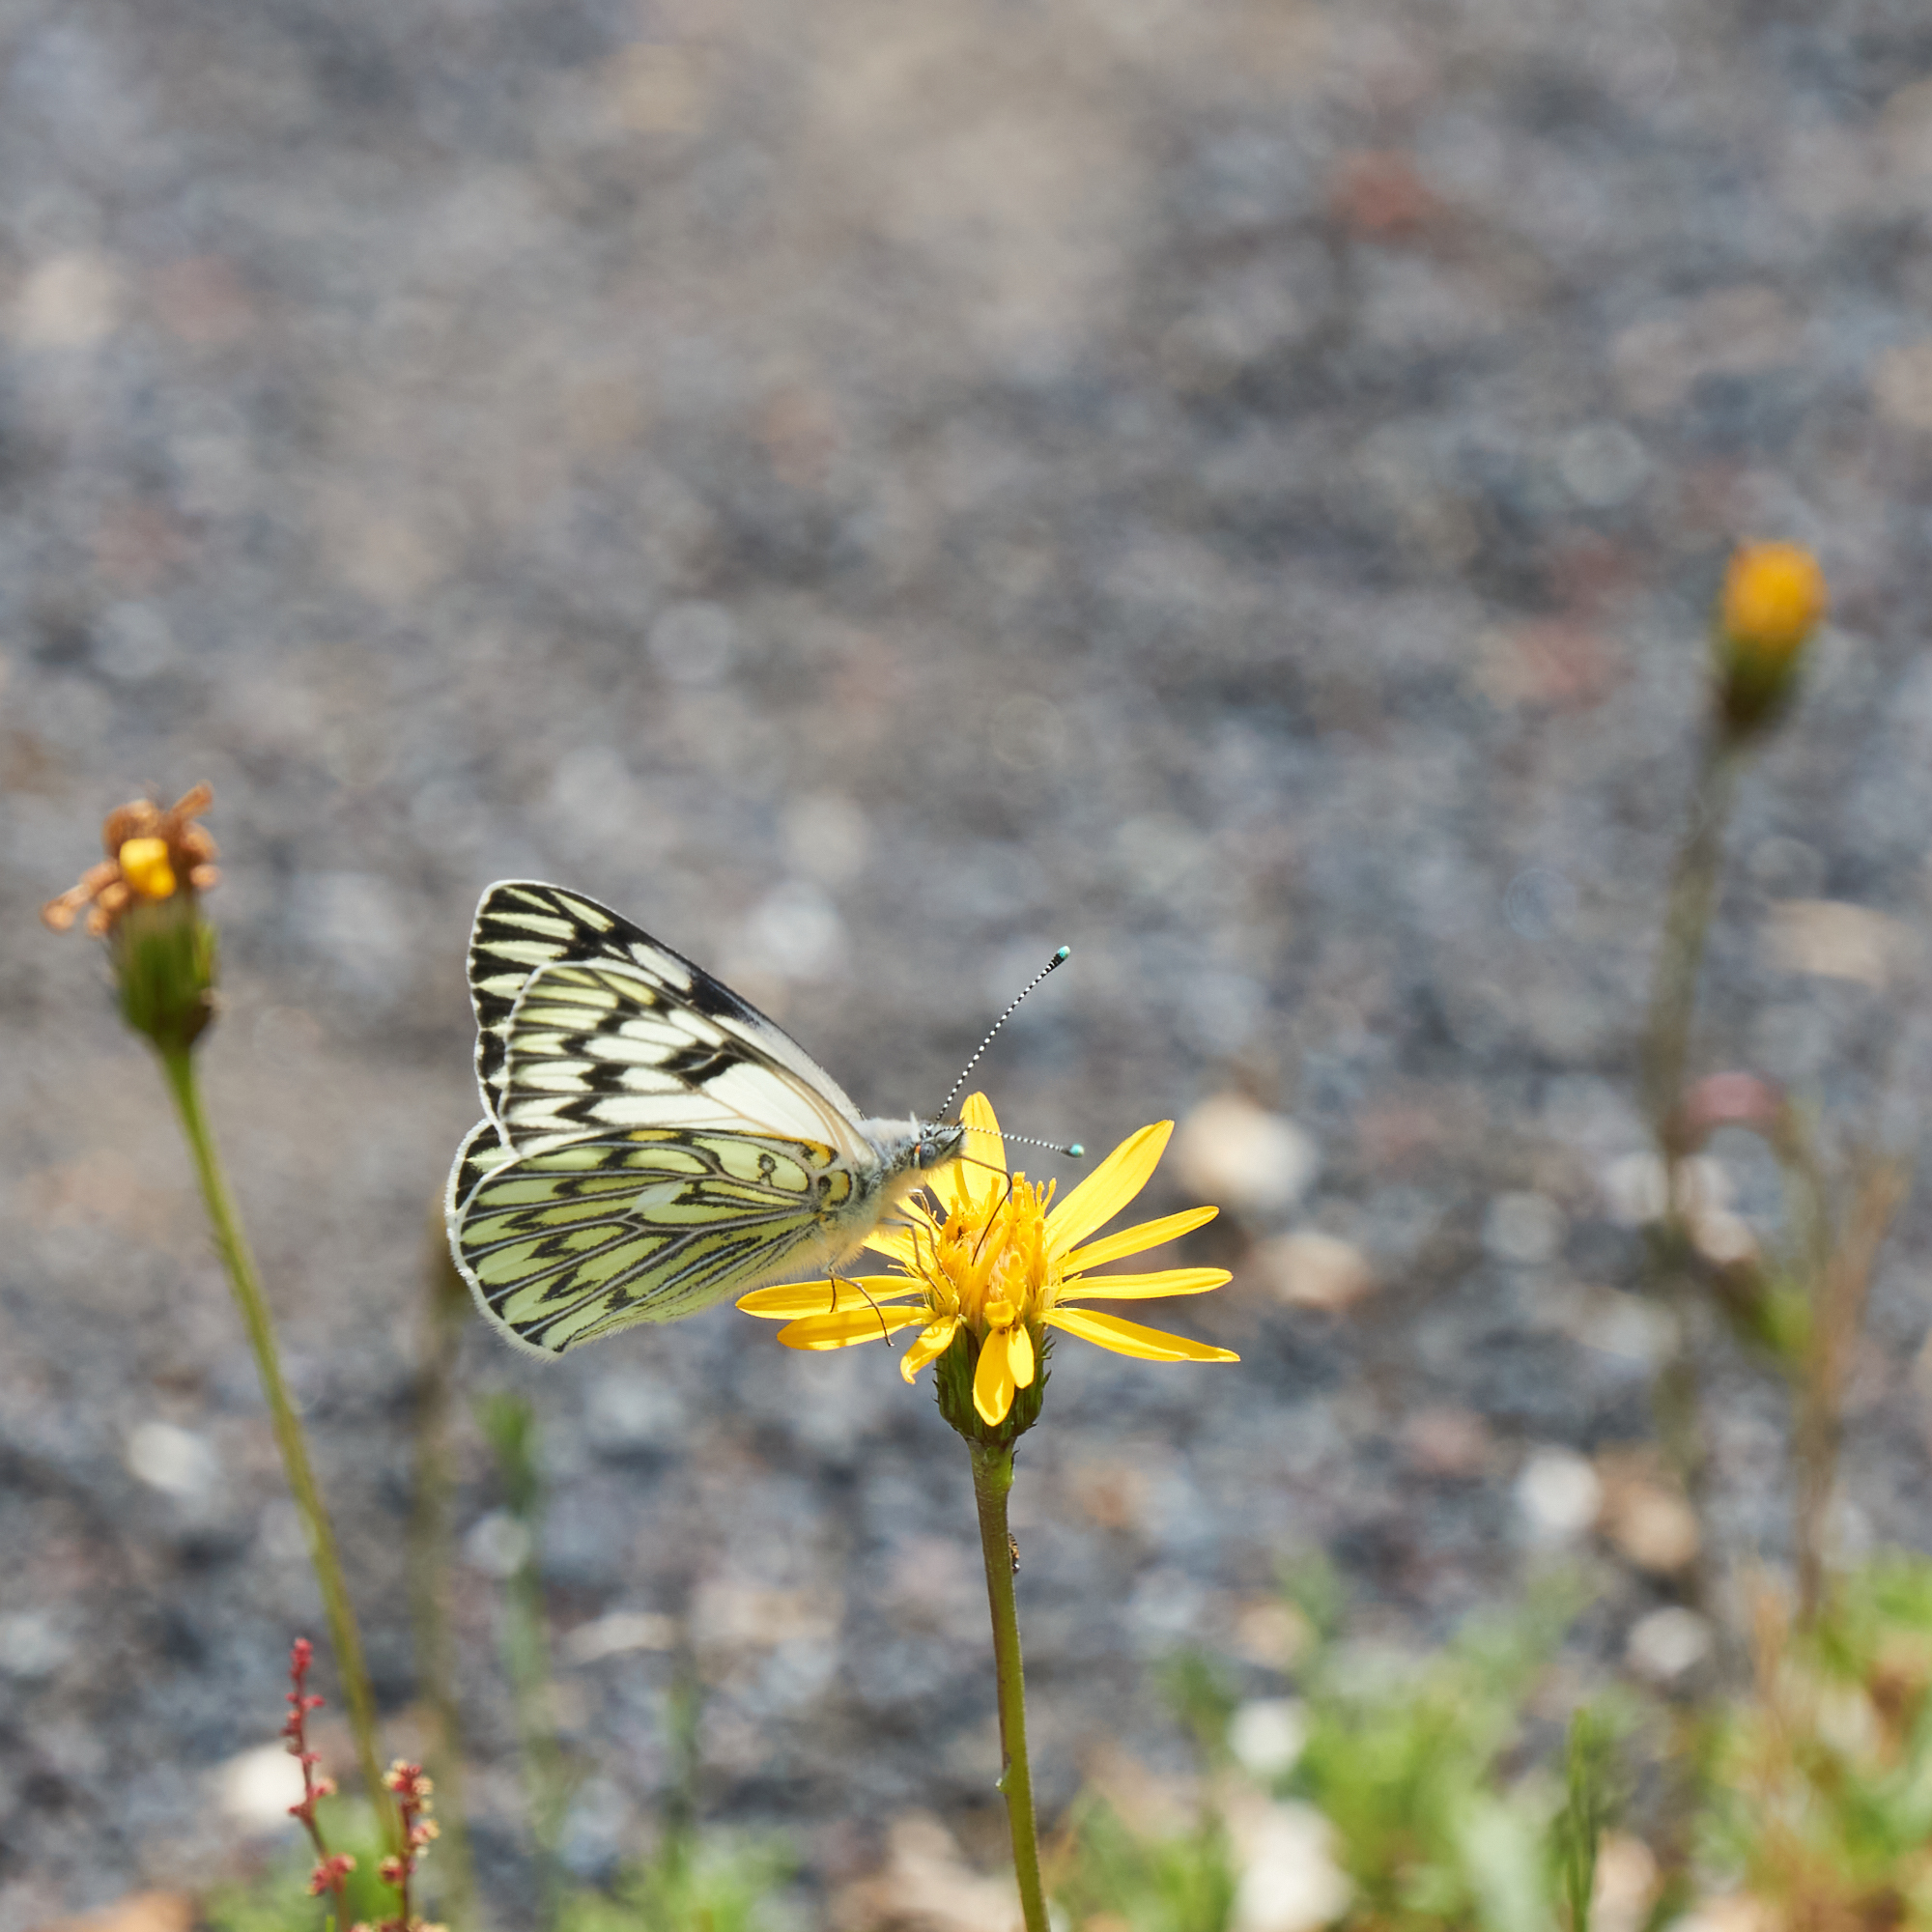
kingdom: Animalia
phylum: Arthropoda
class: Insecta
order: Lepidoptera
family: Pieridae
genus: Tatochila
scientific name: Tatochila autodice
